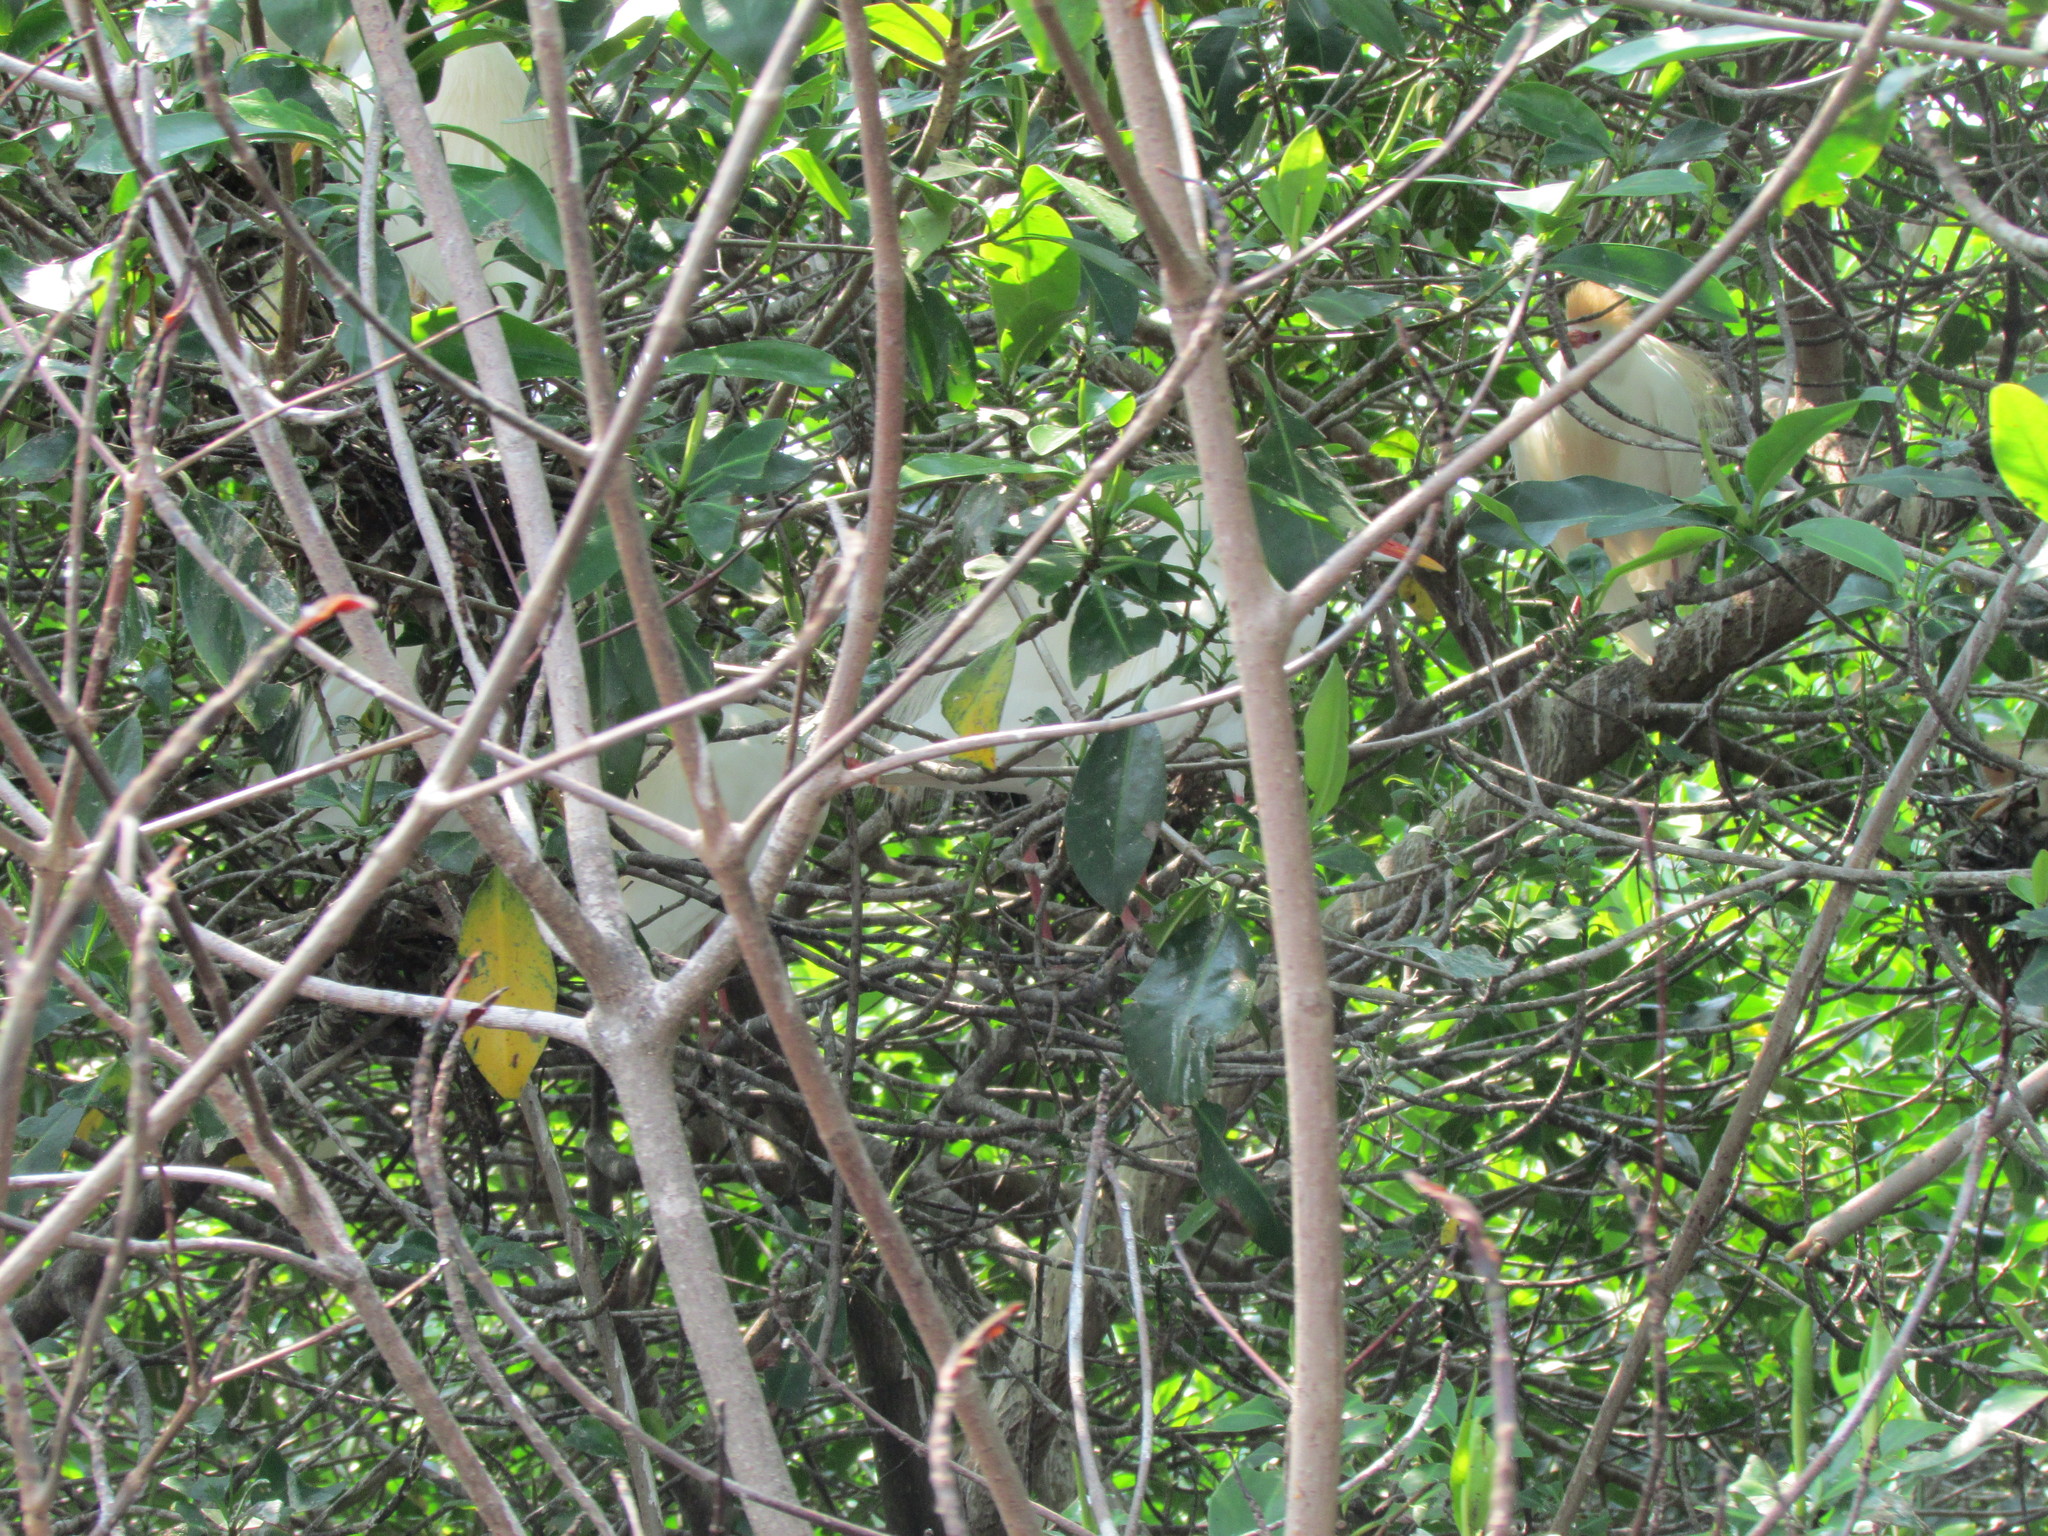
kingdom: Animalia
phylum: Chordata
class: Aves
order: Pelecaniformes
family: Ardeidae
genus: Bubulcus
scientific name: Bubulcus ibis
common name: Cattle egret
